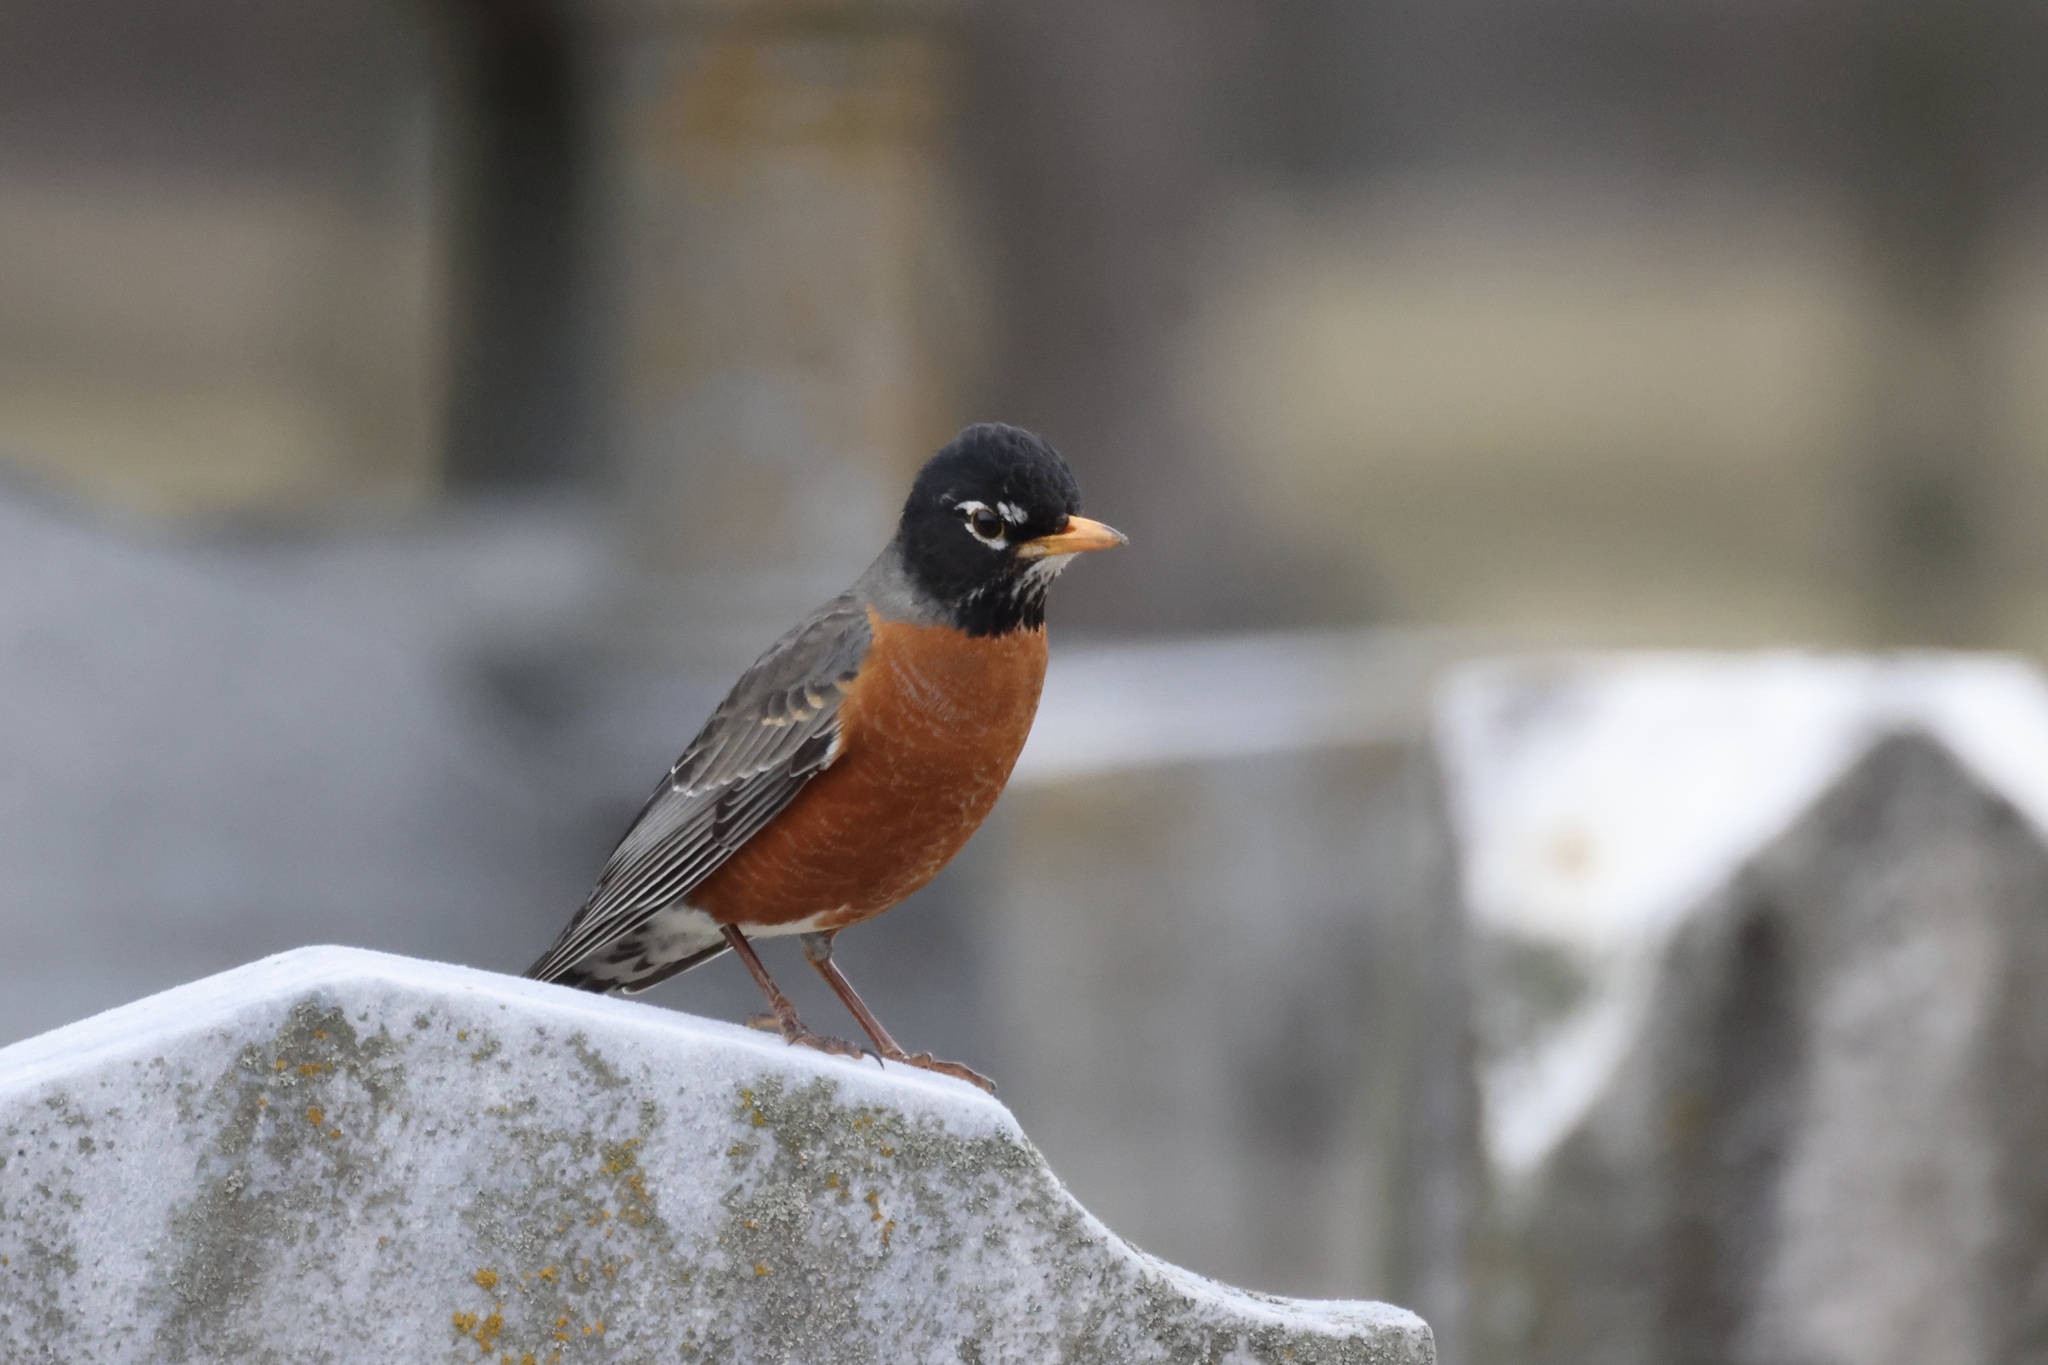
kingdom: Animalia
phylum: Chordata
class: Aves
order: Passeriformes
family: Turdidae
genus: Turdus
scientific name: Turdus migratorius
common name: American robin
